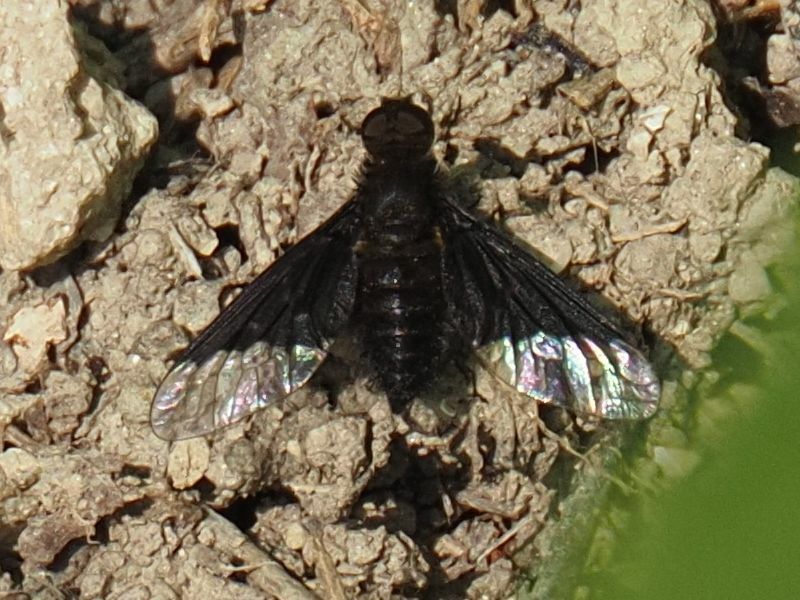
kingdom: Animalia
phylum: Arthropoda
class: Insecta
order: Diptera
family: Bombyliidae
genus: Hemipenthes
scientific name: Hemipenthes morio
